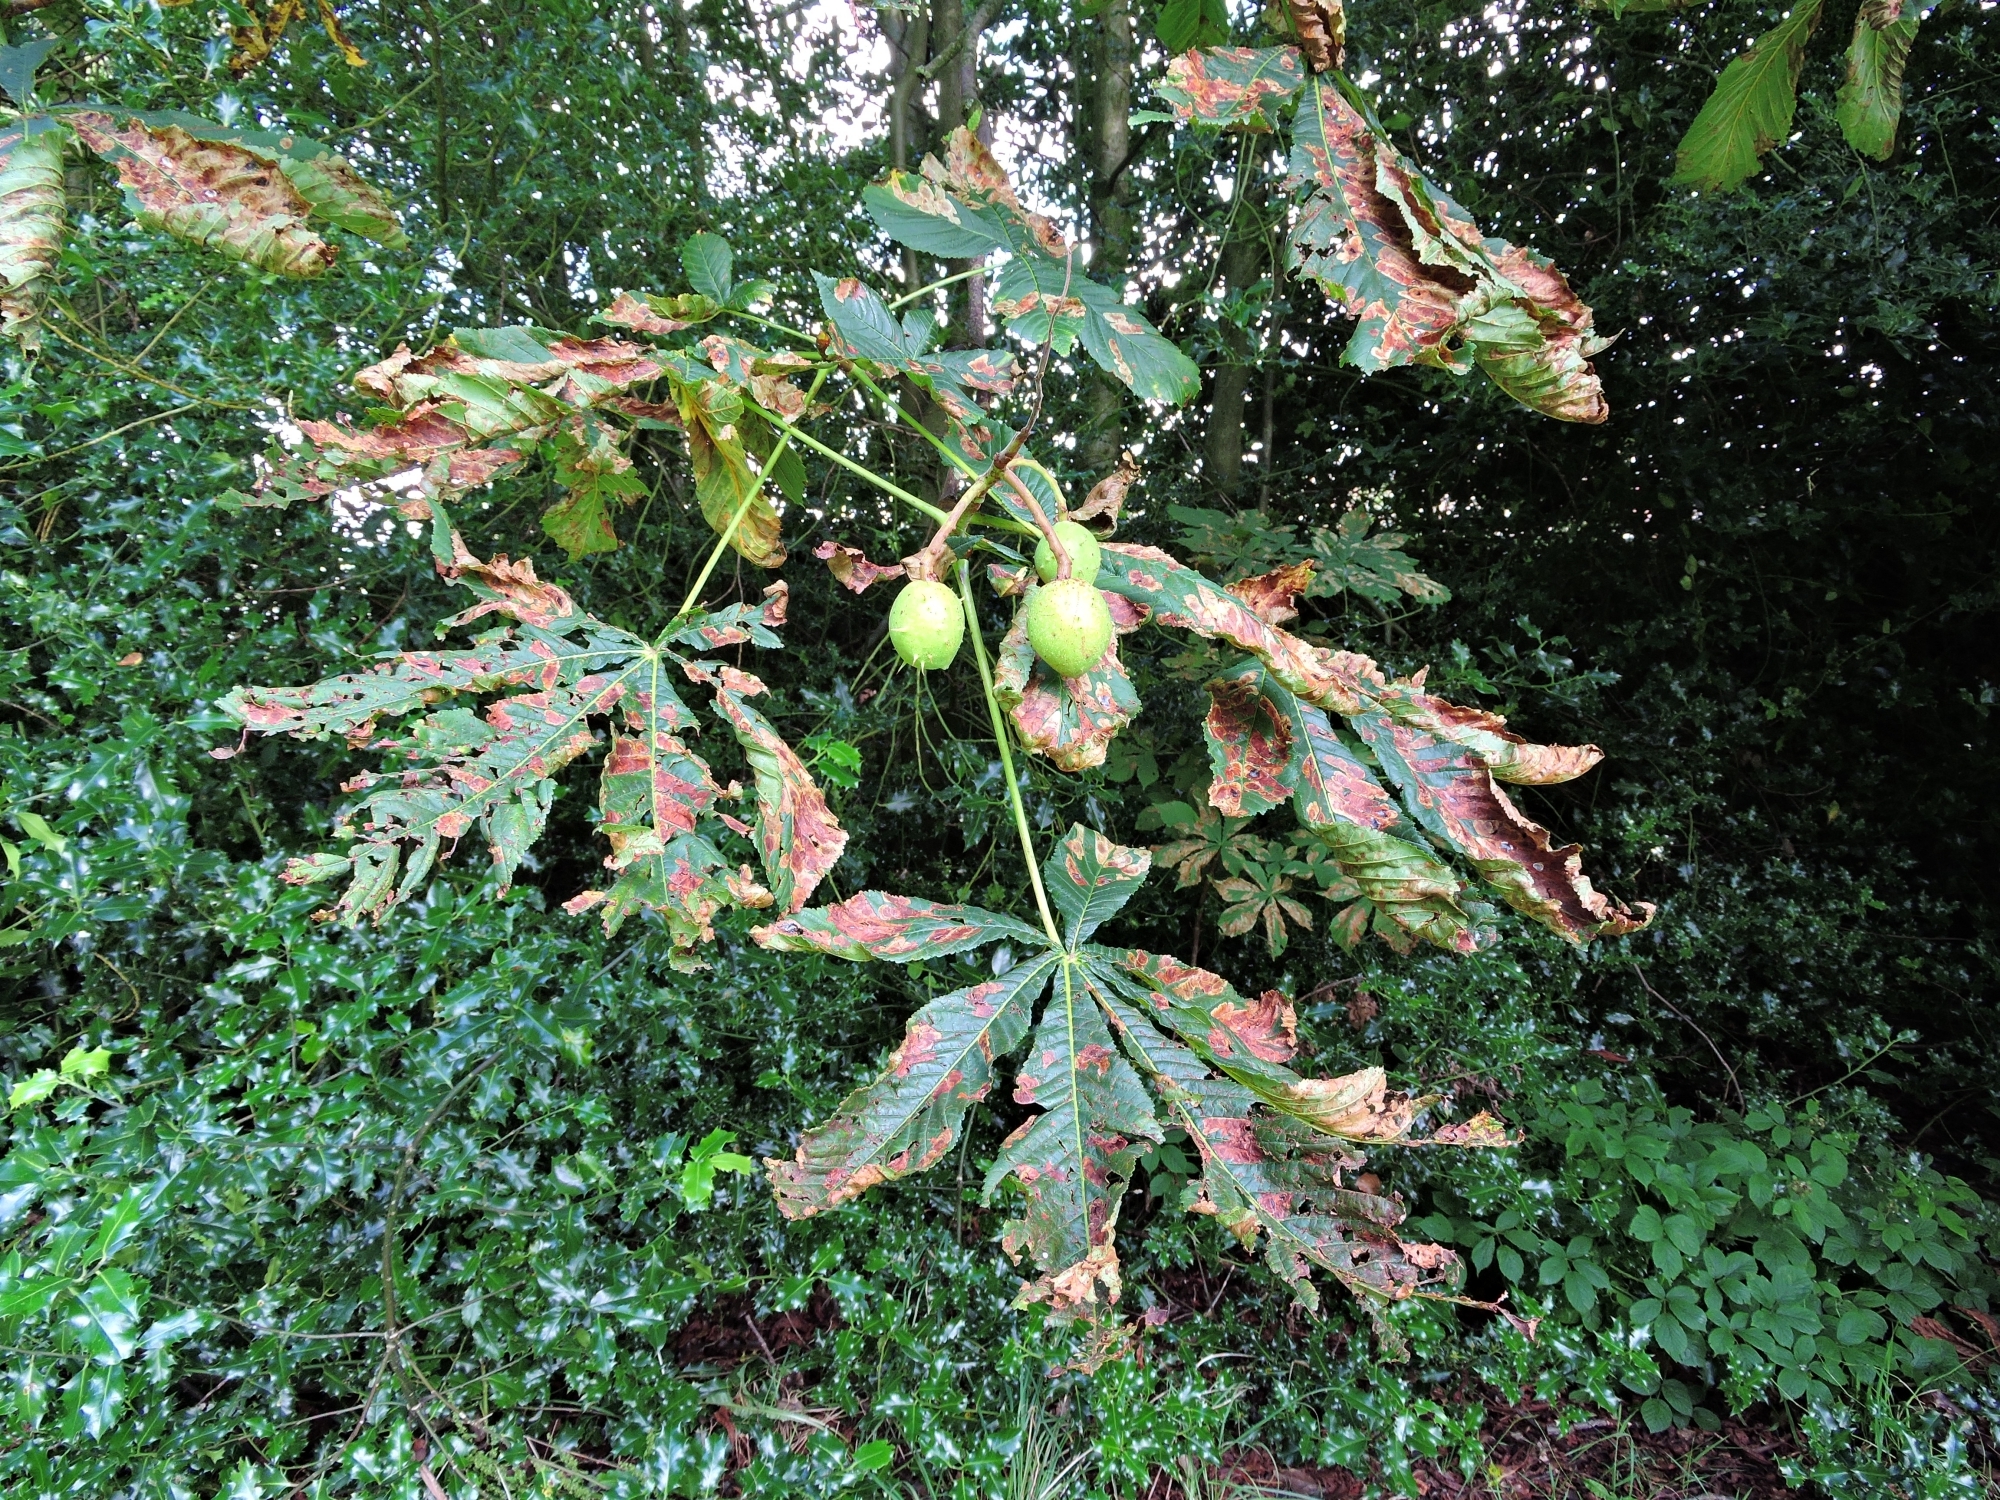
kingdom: Animalia
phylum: Arthropoda
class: Insecta
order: Lepidoptera
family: Gracillariidae
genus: Cameraria
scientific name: Cameraria ohridella
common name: Horse-chestnut leaf-miner
